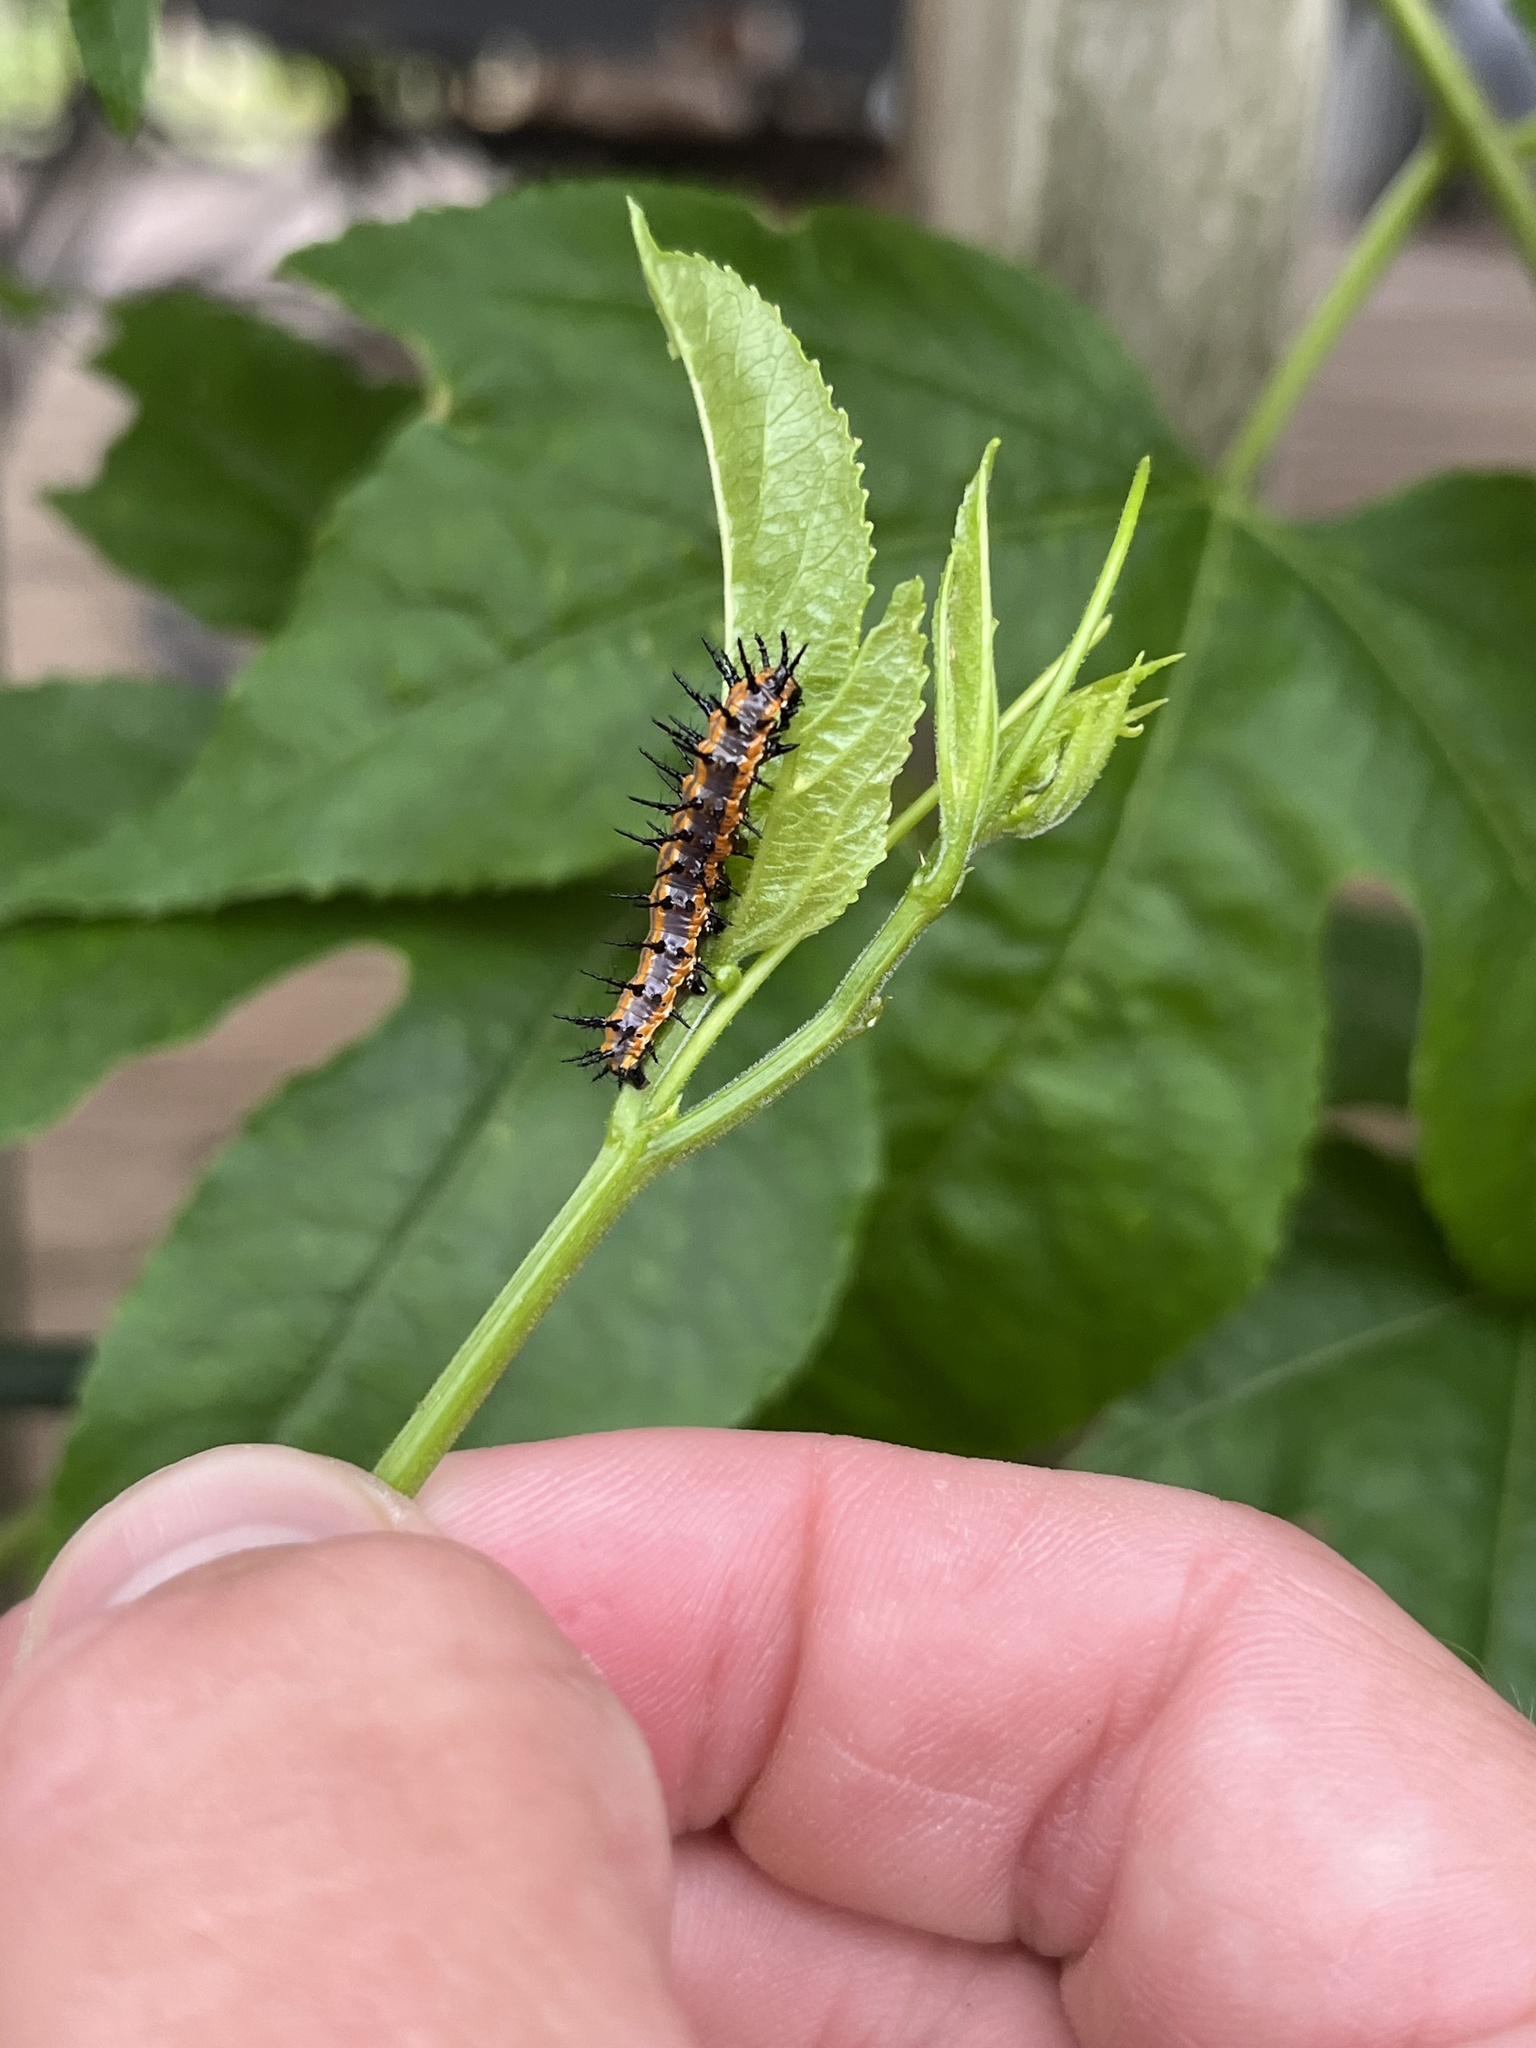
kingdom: Animalia
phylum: Arthropoda
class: Insecta
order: Lepidoptera
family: Nymphalidae
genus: Dione
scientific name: Dione vanillae
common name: Gulf fritillary
